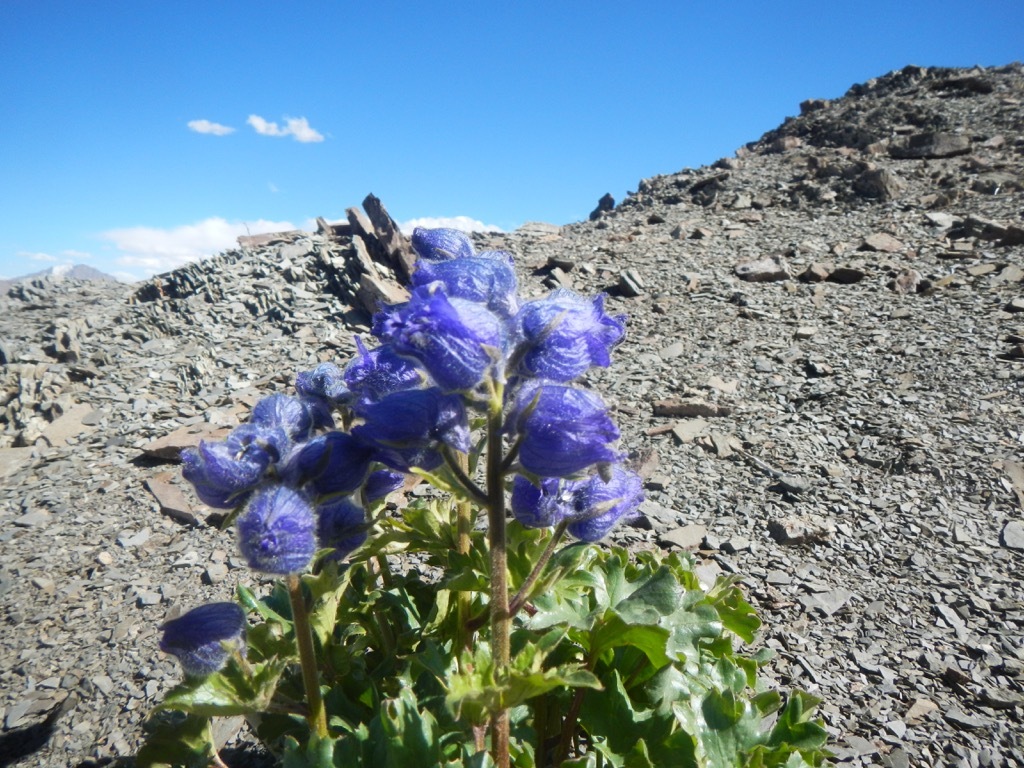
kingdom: Plantae
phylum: Tracheophyta
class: Magnoliopsida
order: Ranunculales
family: Ranunculaceae
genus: Delphinium
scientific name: Delphinium brunonianum
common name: Musk larkspur
